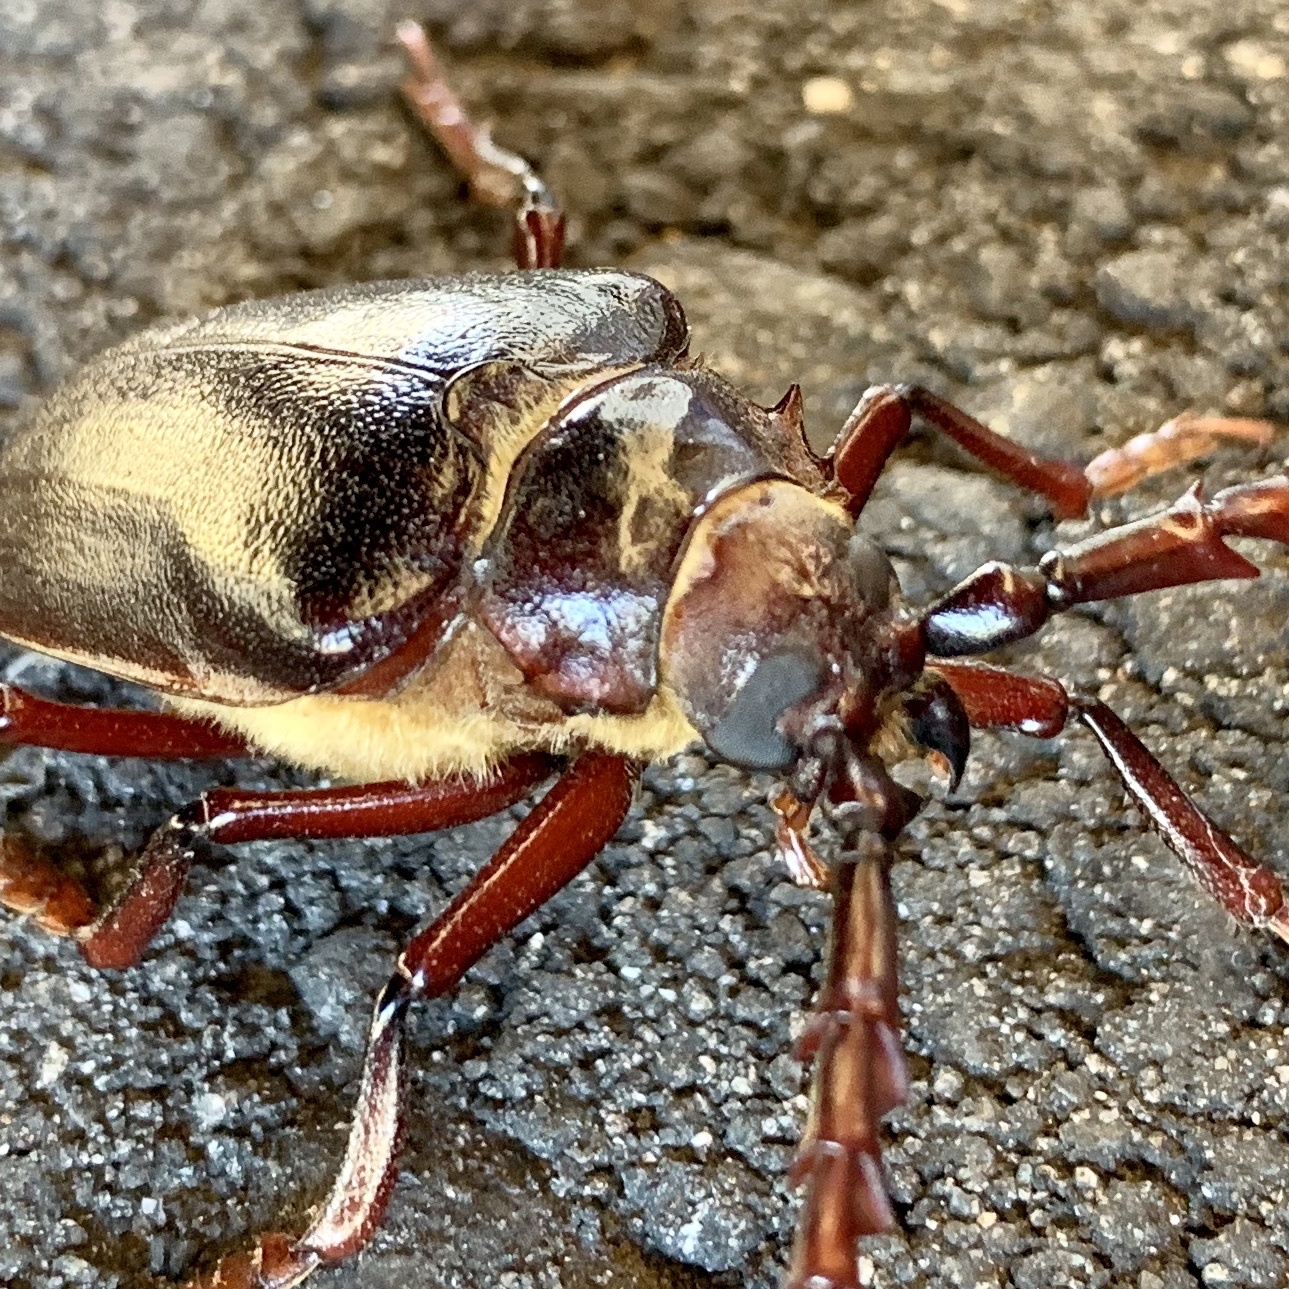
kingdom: Animalia
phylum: Arthropoda
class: Insecta
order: Coleoptera
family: Cerambycidae
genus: Prionus
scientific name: Prionus californicus
